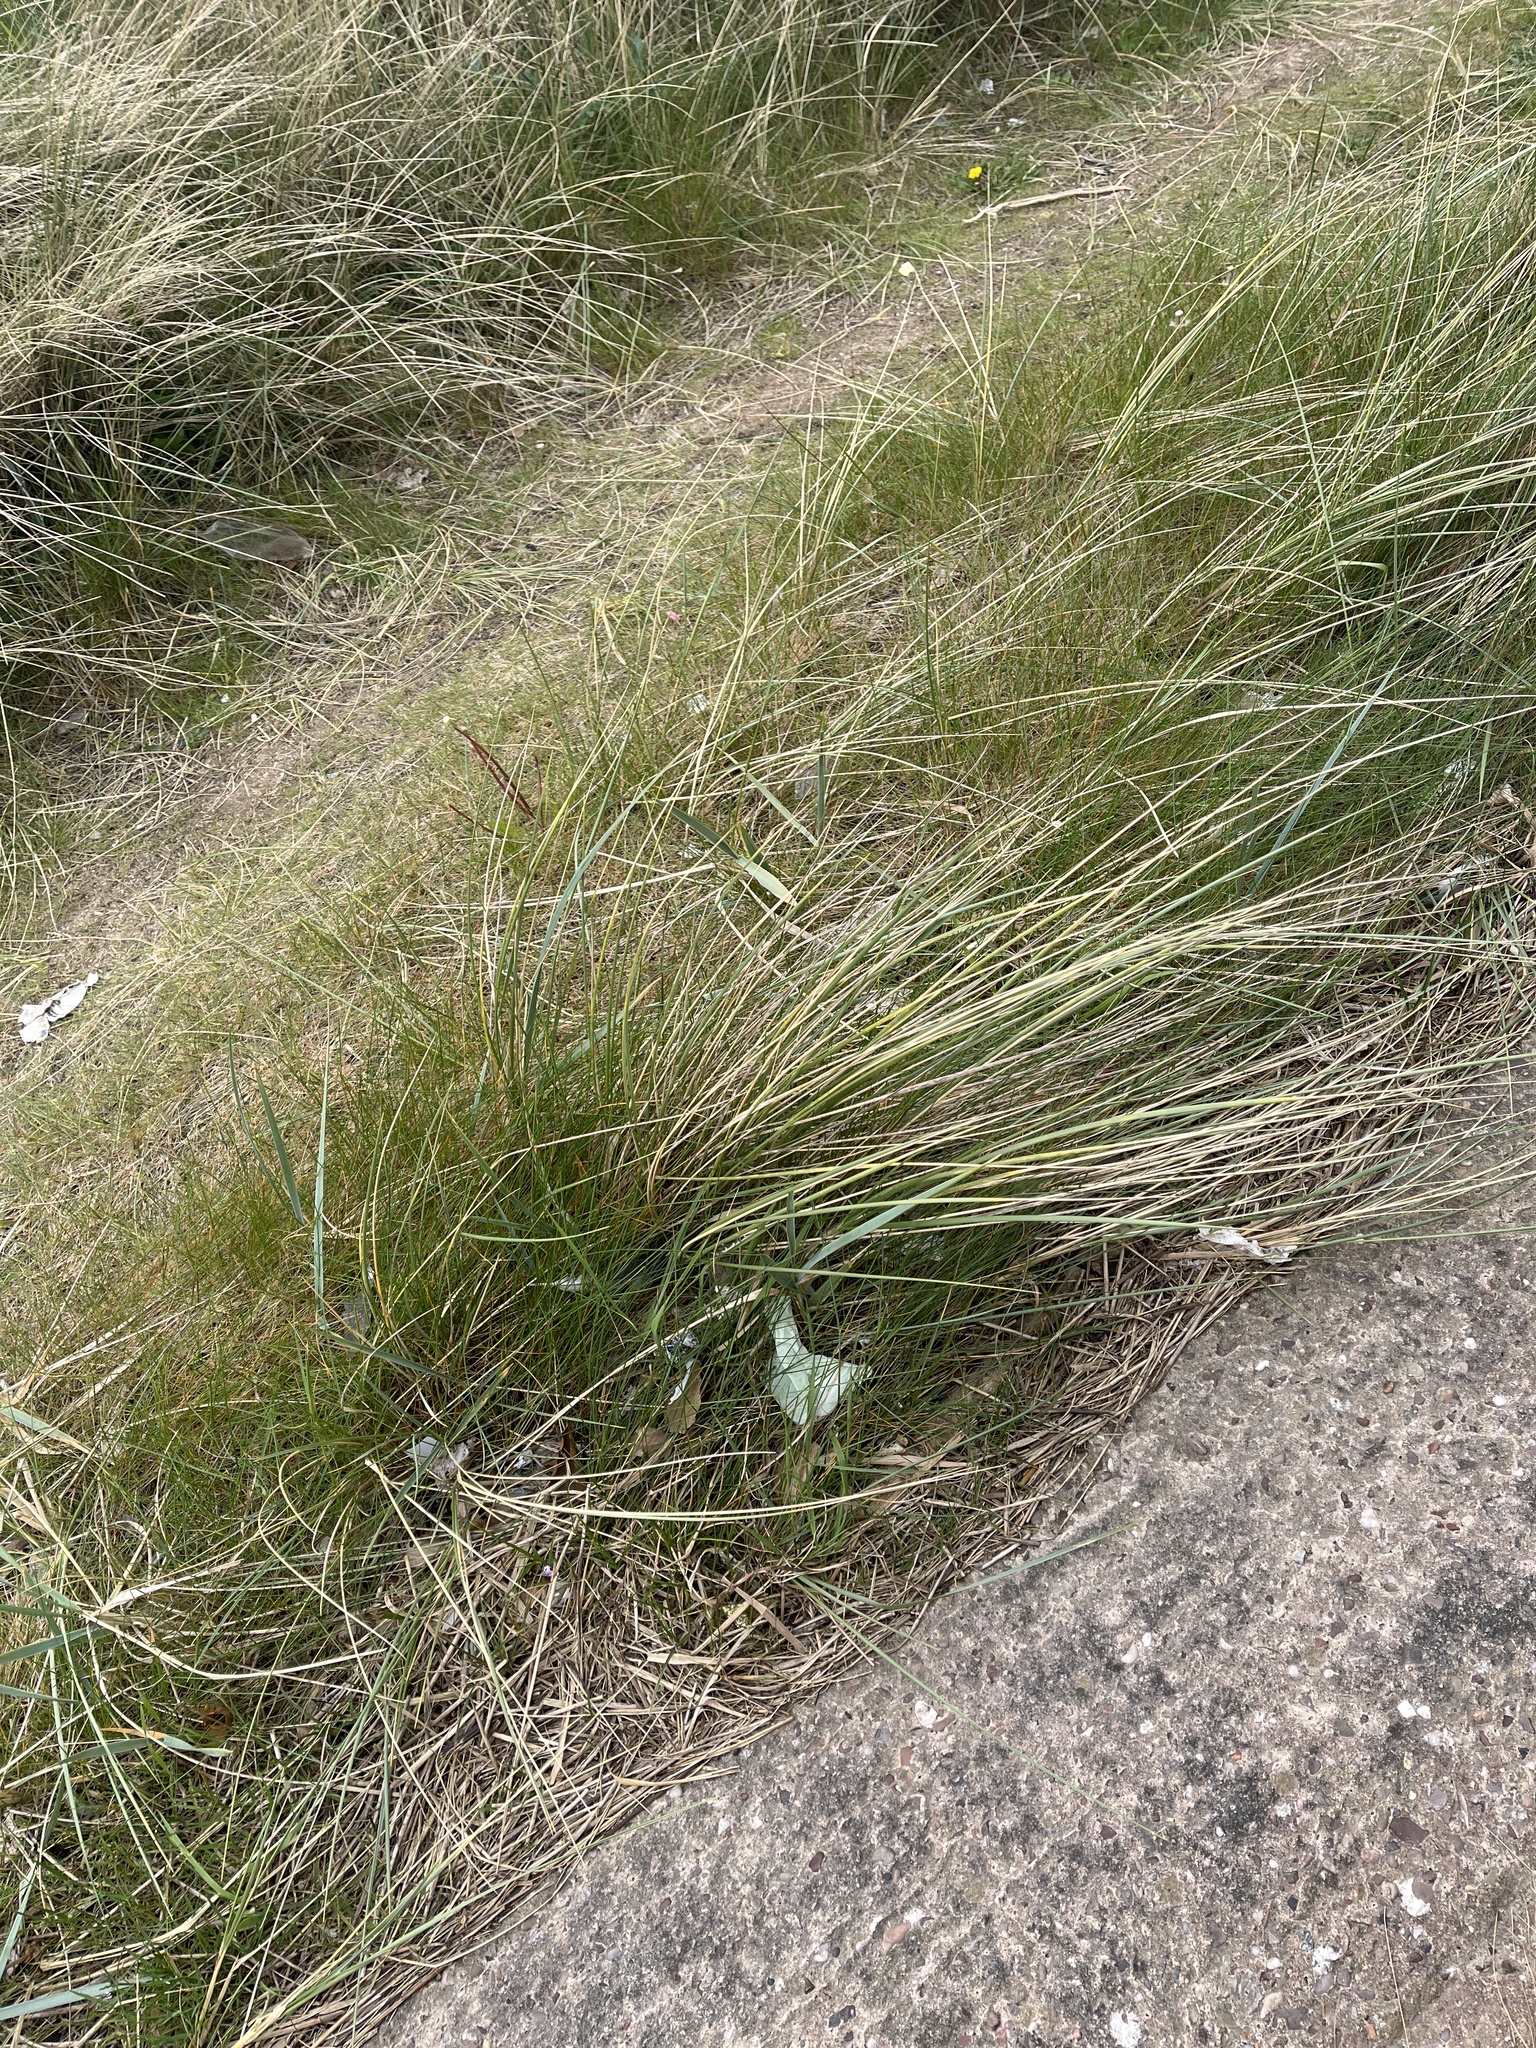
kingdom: Plantae
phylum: Tracheophyta
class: Liliopsida
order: Poales
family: Poaceae
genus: Calamagrostis
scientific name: Calamagrostis arenaria
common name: European beachgrass
